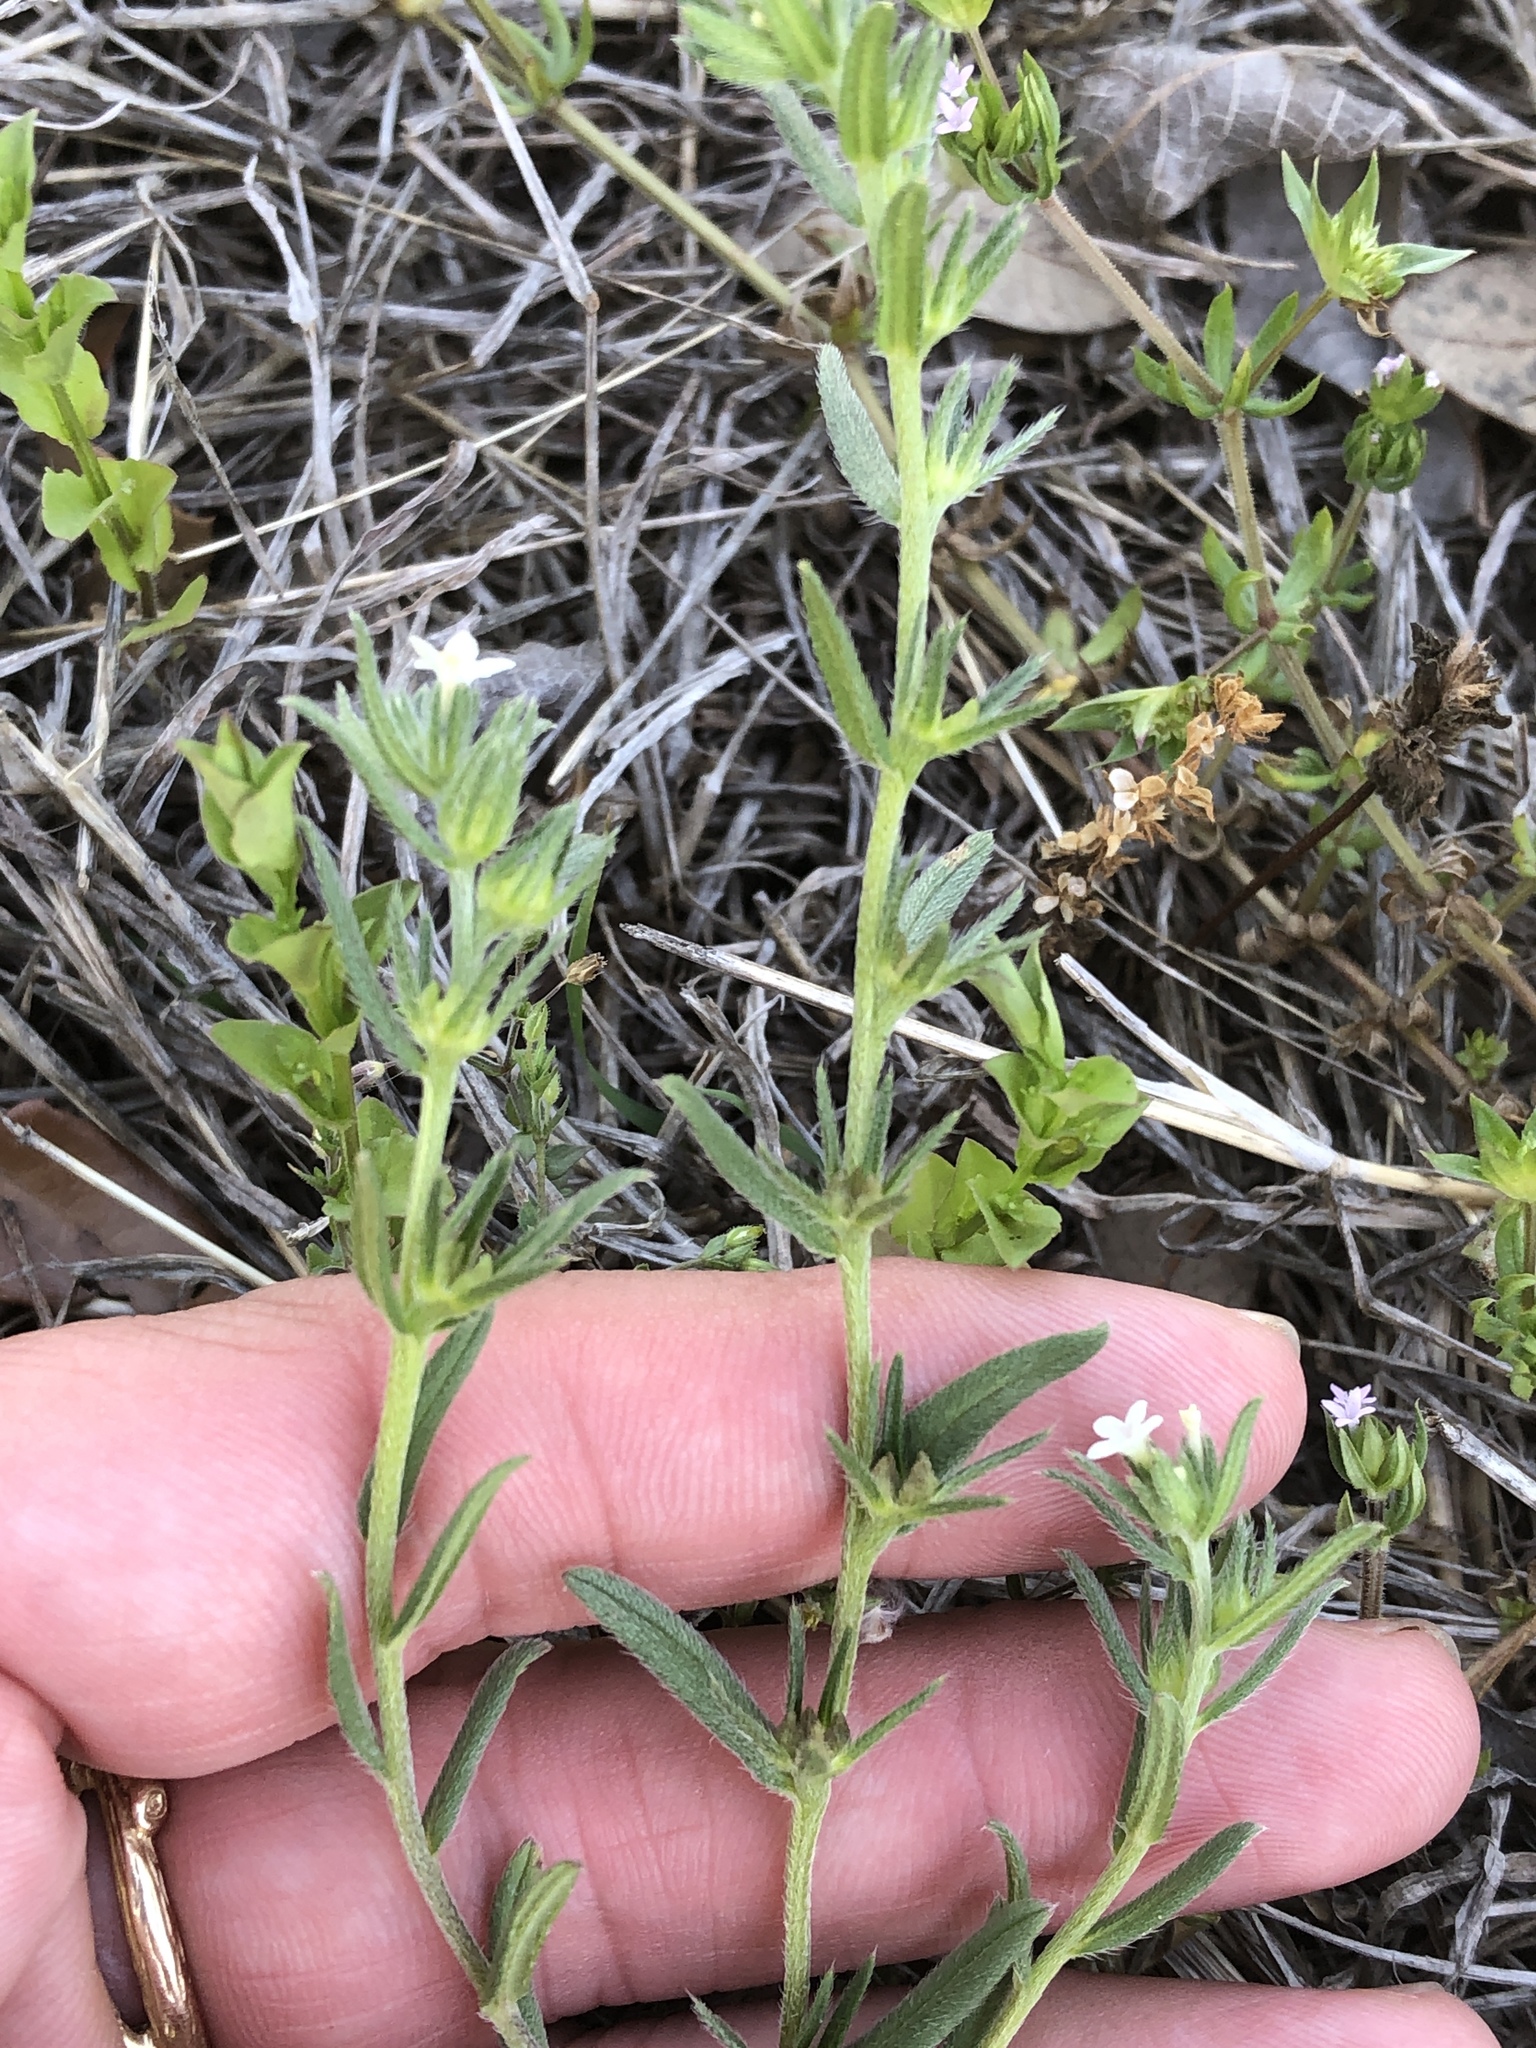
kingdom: Plantae
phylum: Tracheophyta
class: Magnoliopsida
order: Boraginales
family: Boraginaceae
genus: Buglossoides
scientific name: Buglossoides arvensis
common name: Corn gromwell
